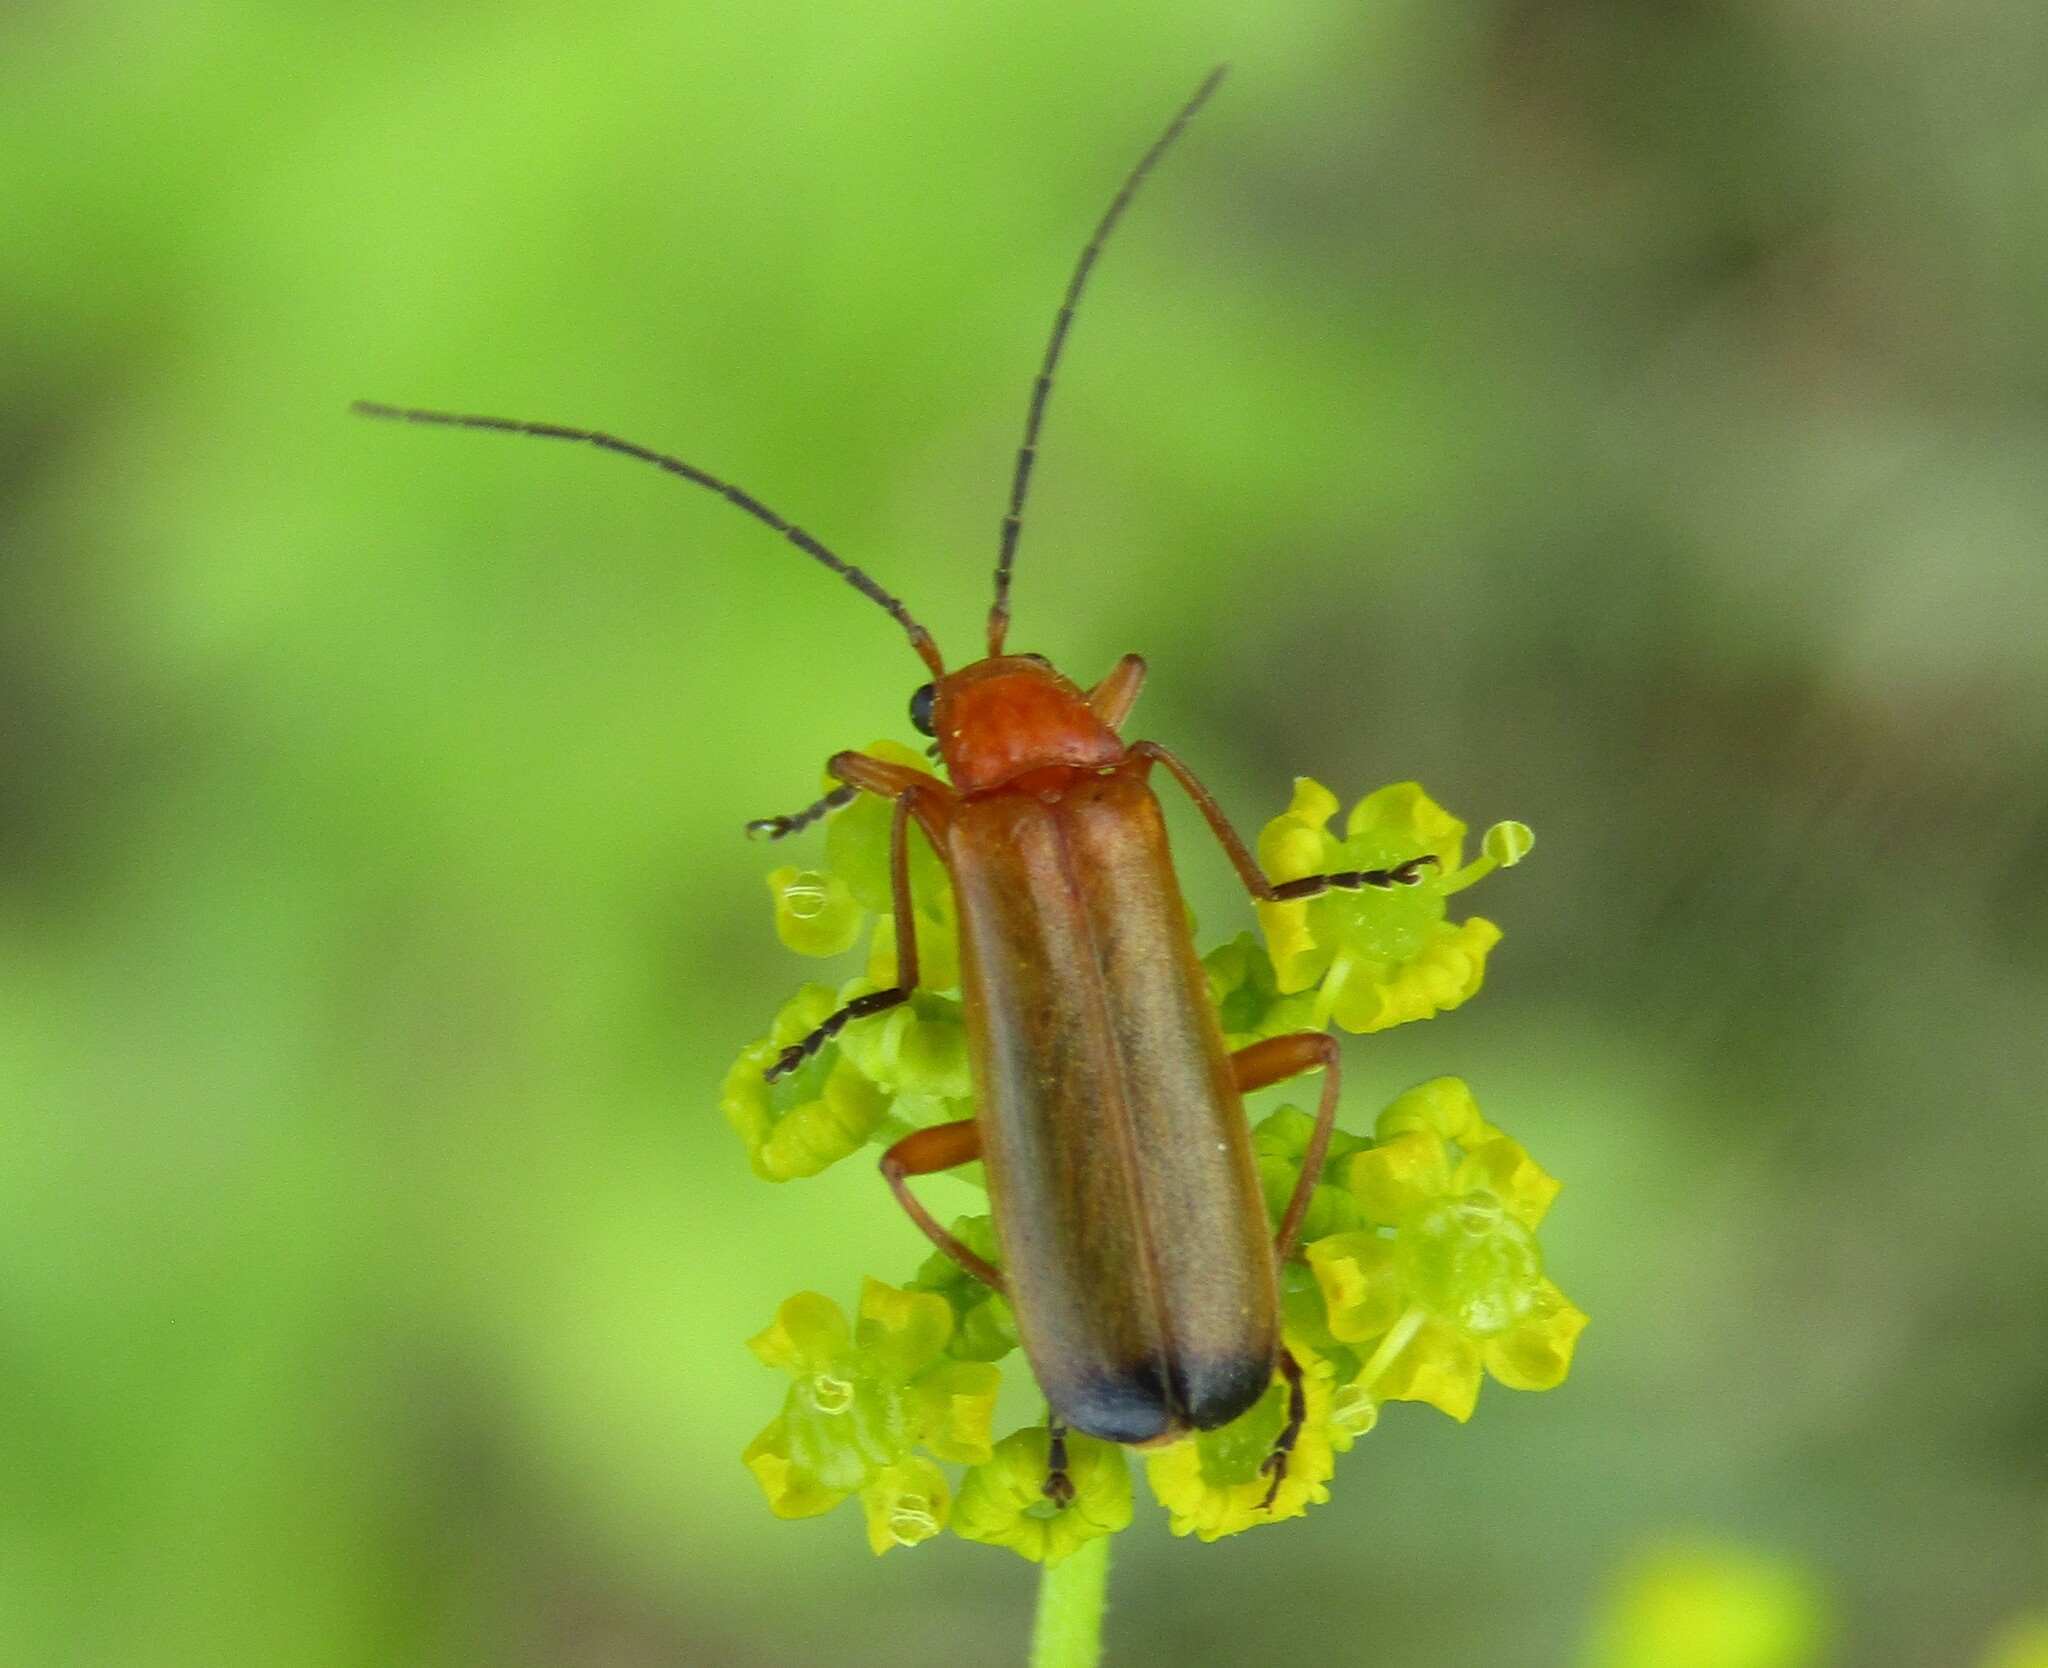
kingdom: Animalia
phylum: Arthropoda
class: Insecta
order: Coleoptera
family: Cantharidae
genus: Rhagonycha
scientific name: Rhagonycha fulva
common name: Common red soldier beetle
